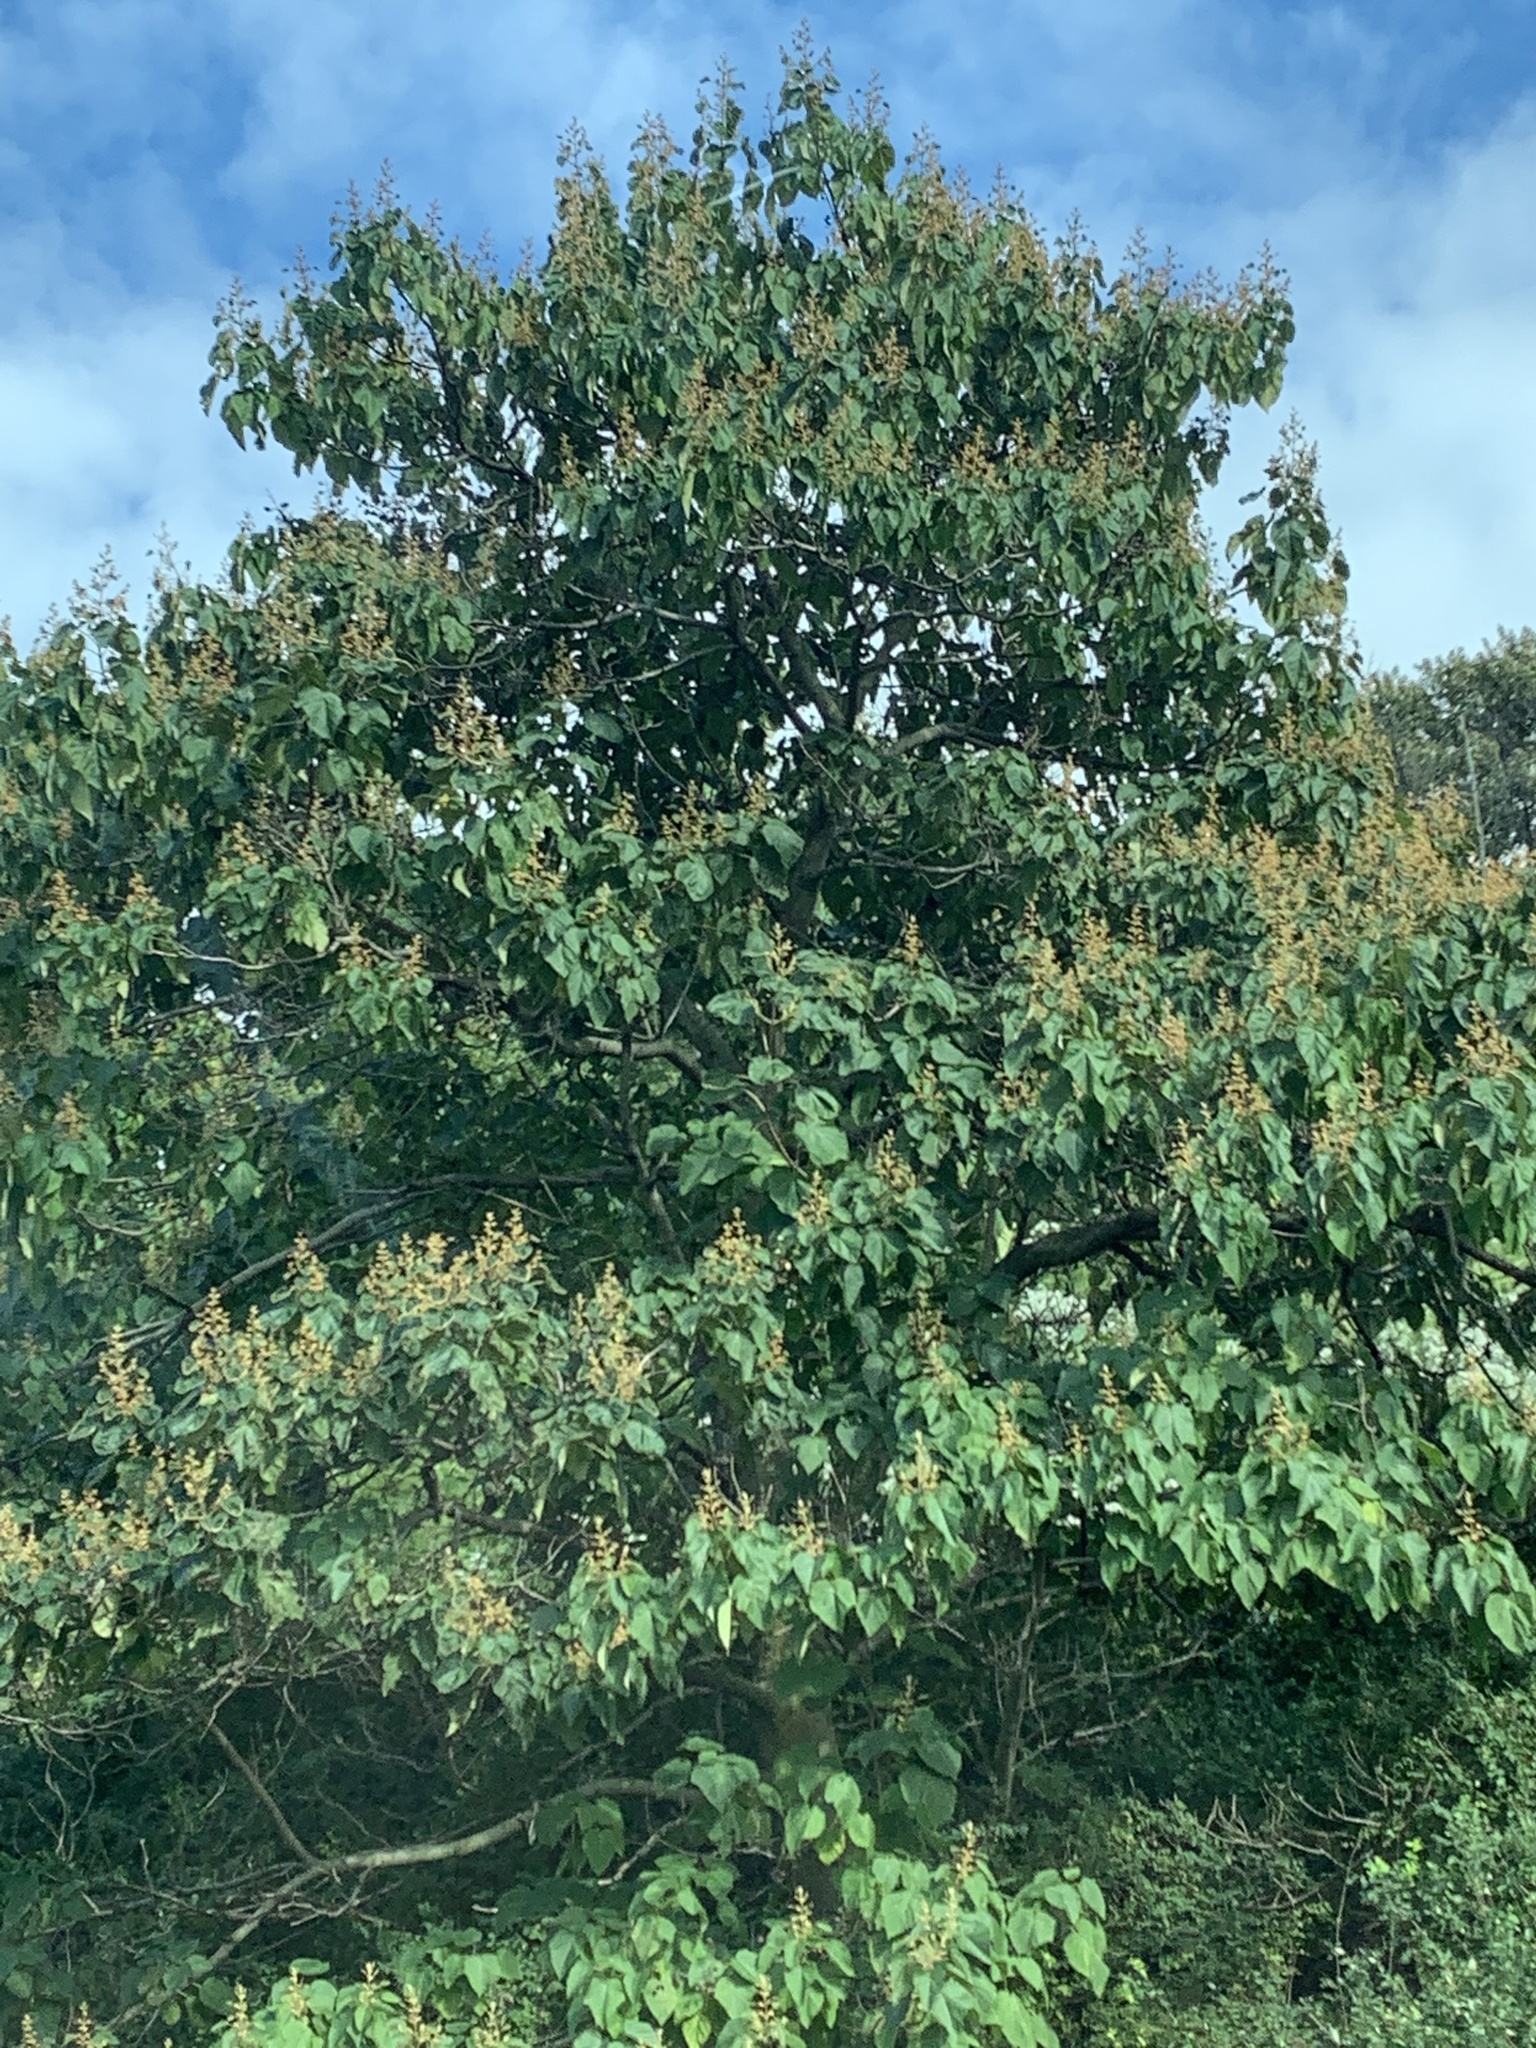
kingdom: Plantae
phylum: Tracheophyta
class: Magnoliopsida
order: Lamiales
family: Paulowniaceae
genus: Paulownia
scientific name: Paulownia tomentosa
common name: Foxglove-tree
